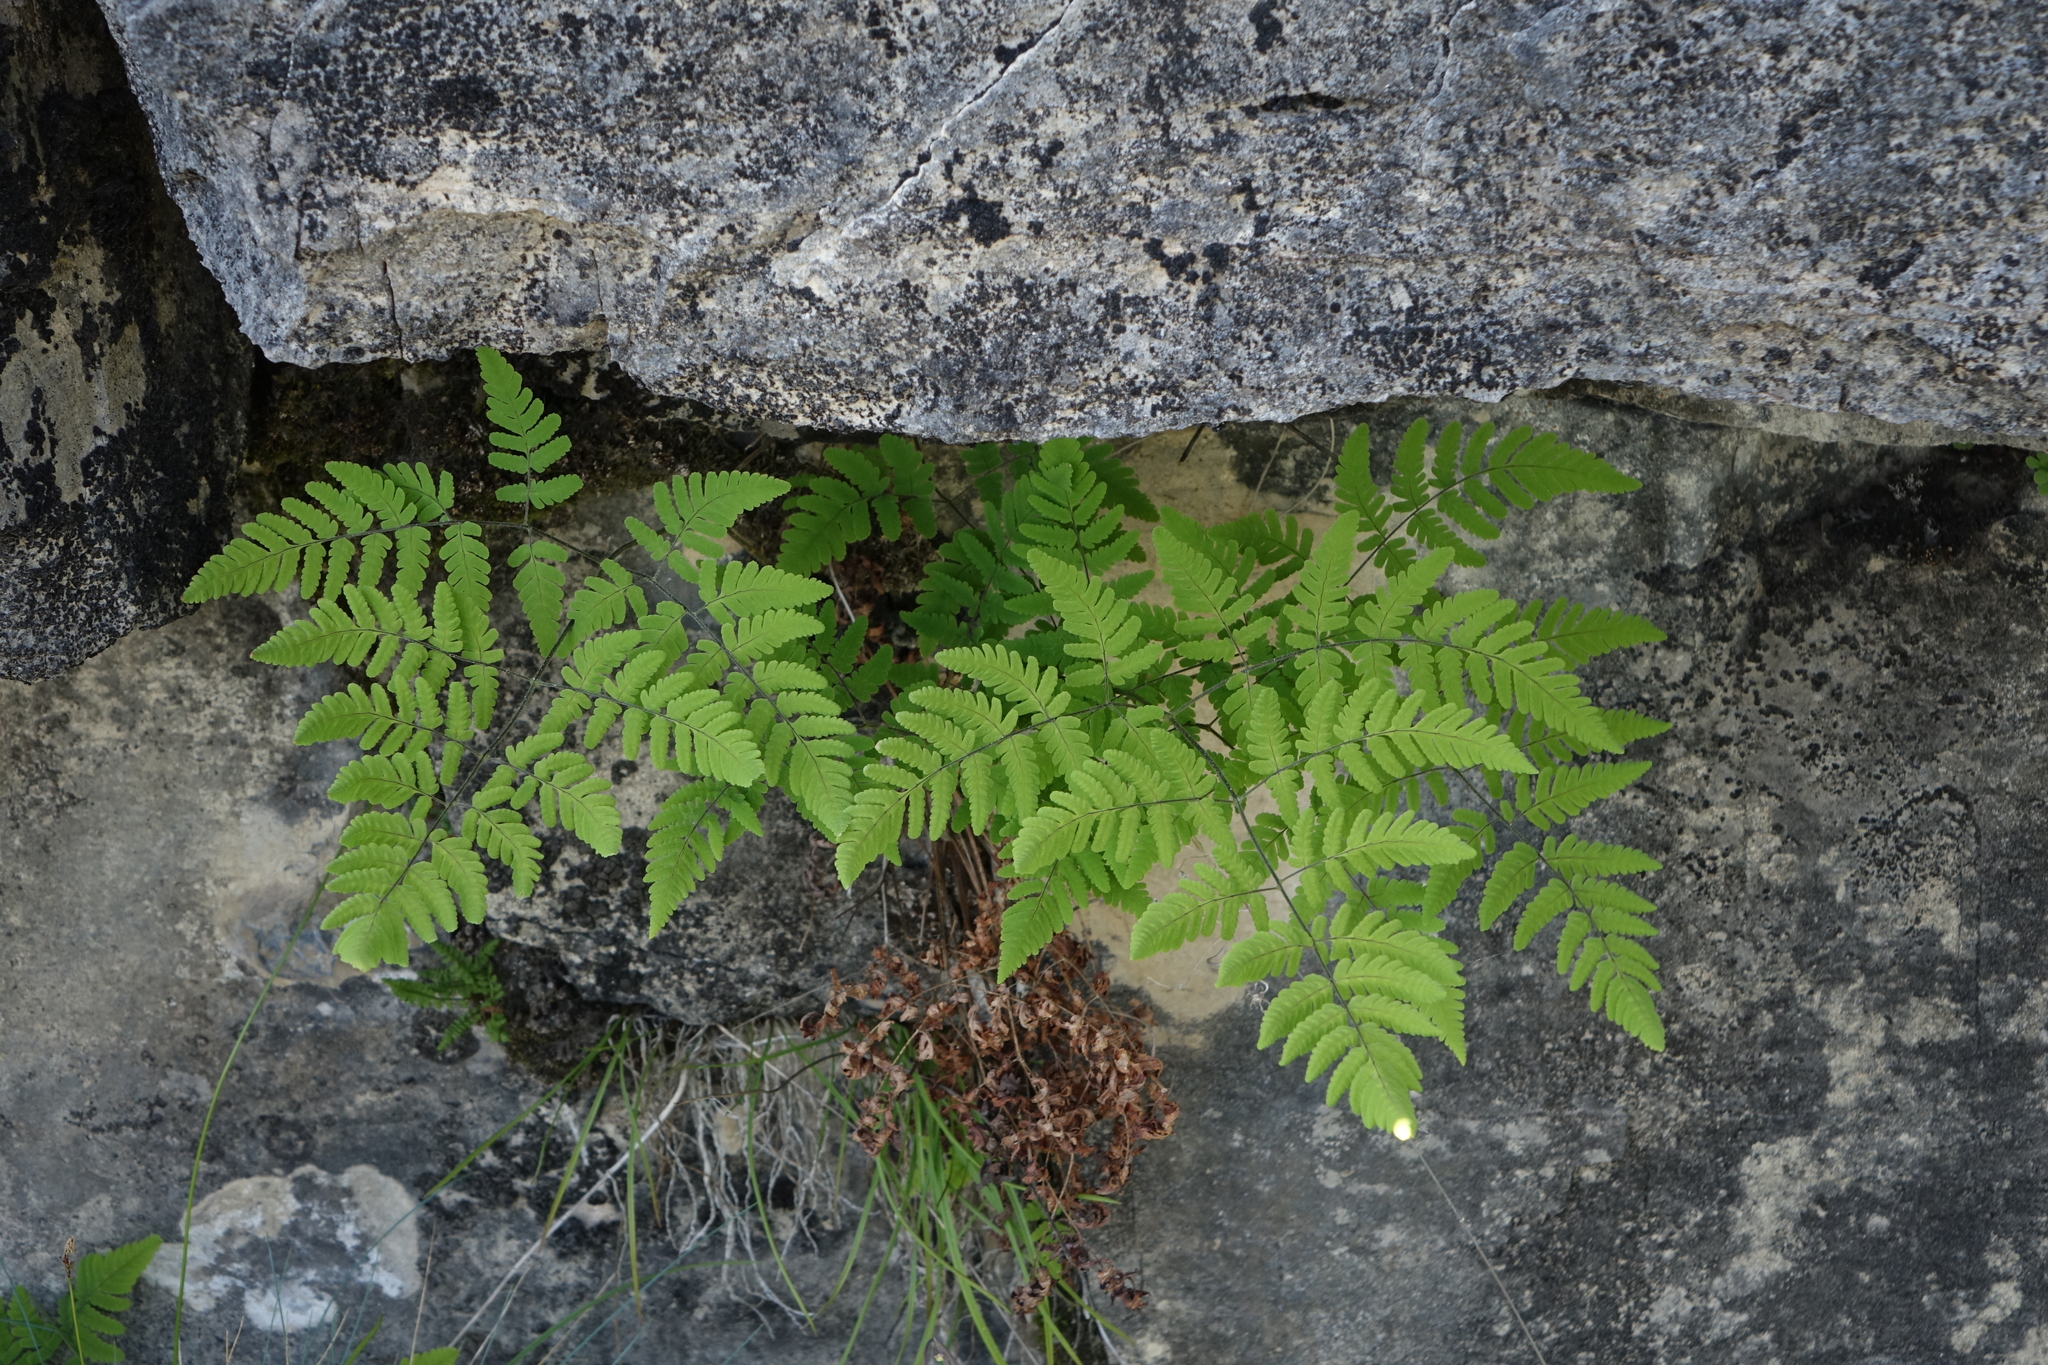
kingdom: Plantae
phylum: Tracheophyta
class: Polypodiopsida
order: Polypodiales
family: Cystopteridaceae
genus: Gymnocarpium
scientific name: Gymnocarpium jessoense
